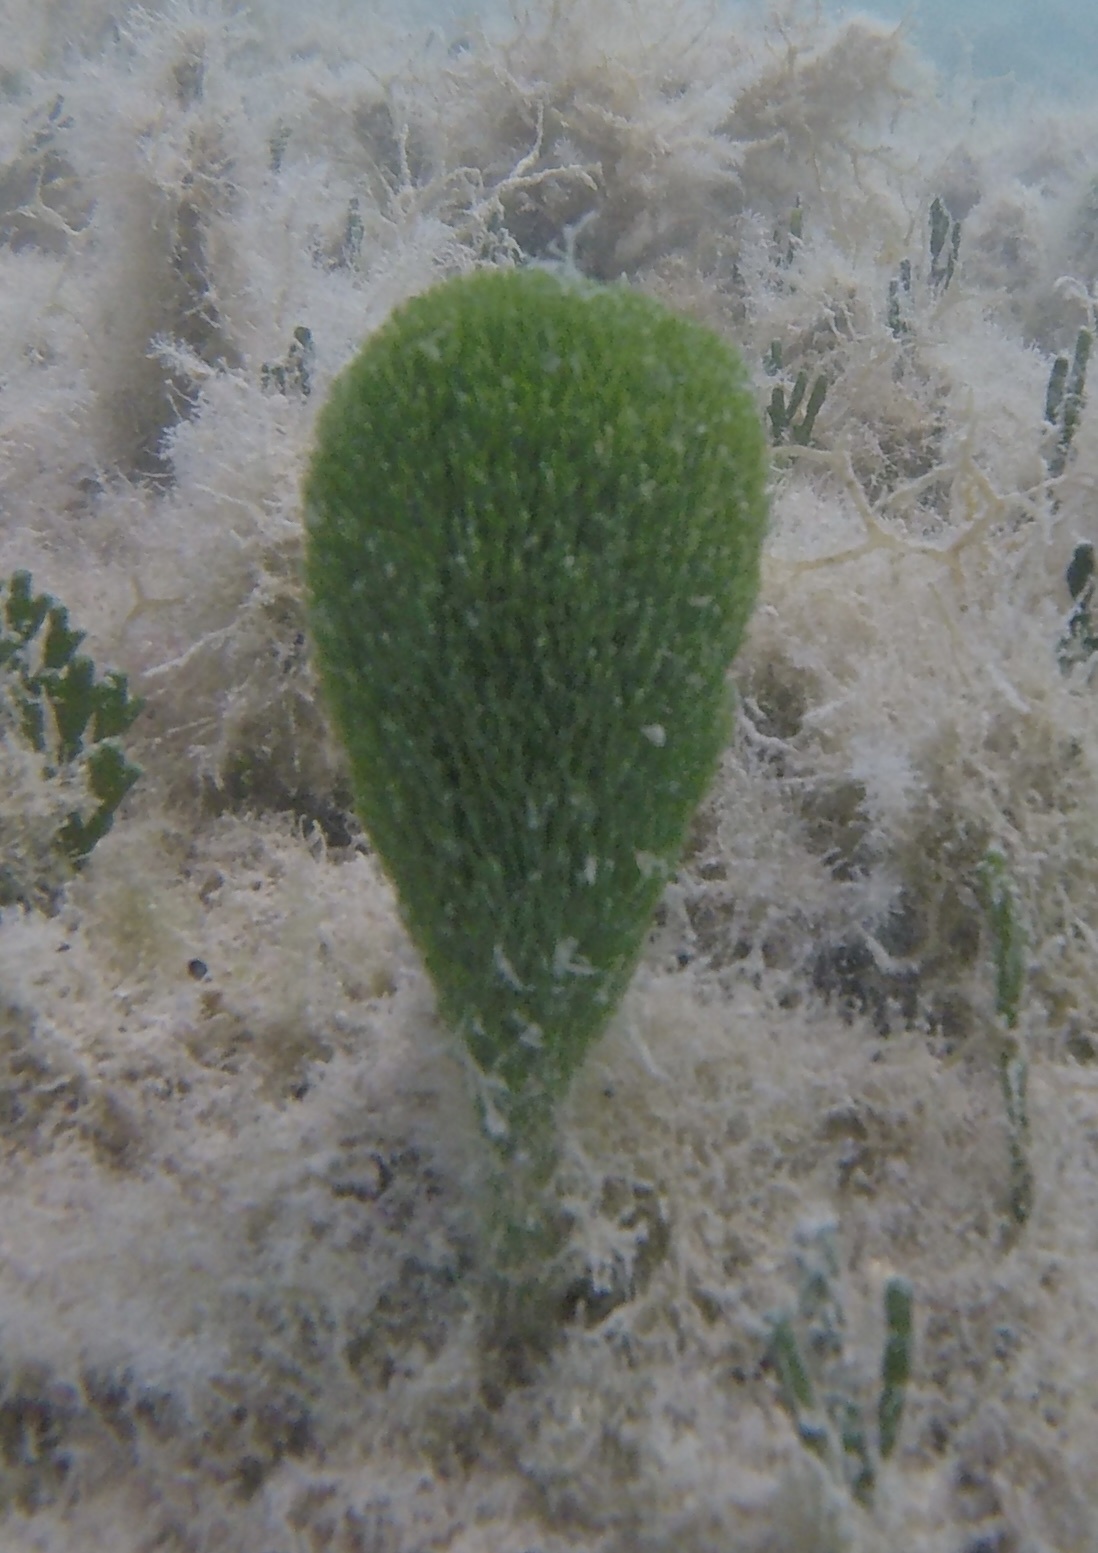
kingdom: Plantae
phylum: Chlorophyta
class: Ulvophyceae
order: Bryopsidales
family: Udoteaceae
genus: Penicillus
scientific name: Penicillus capitatus
